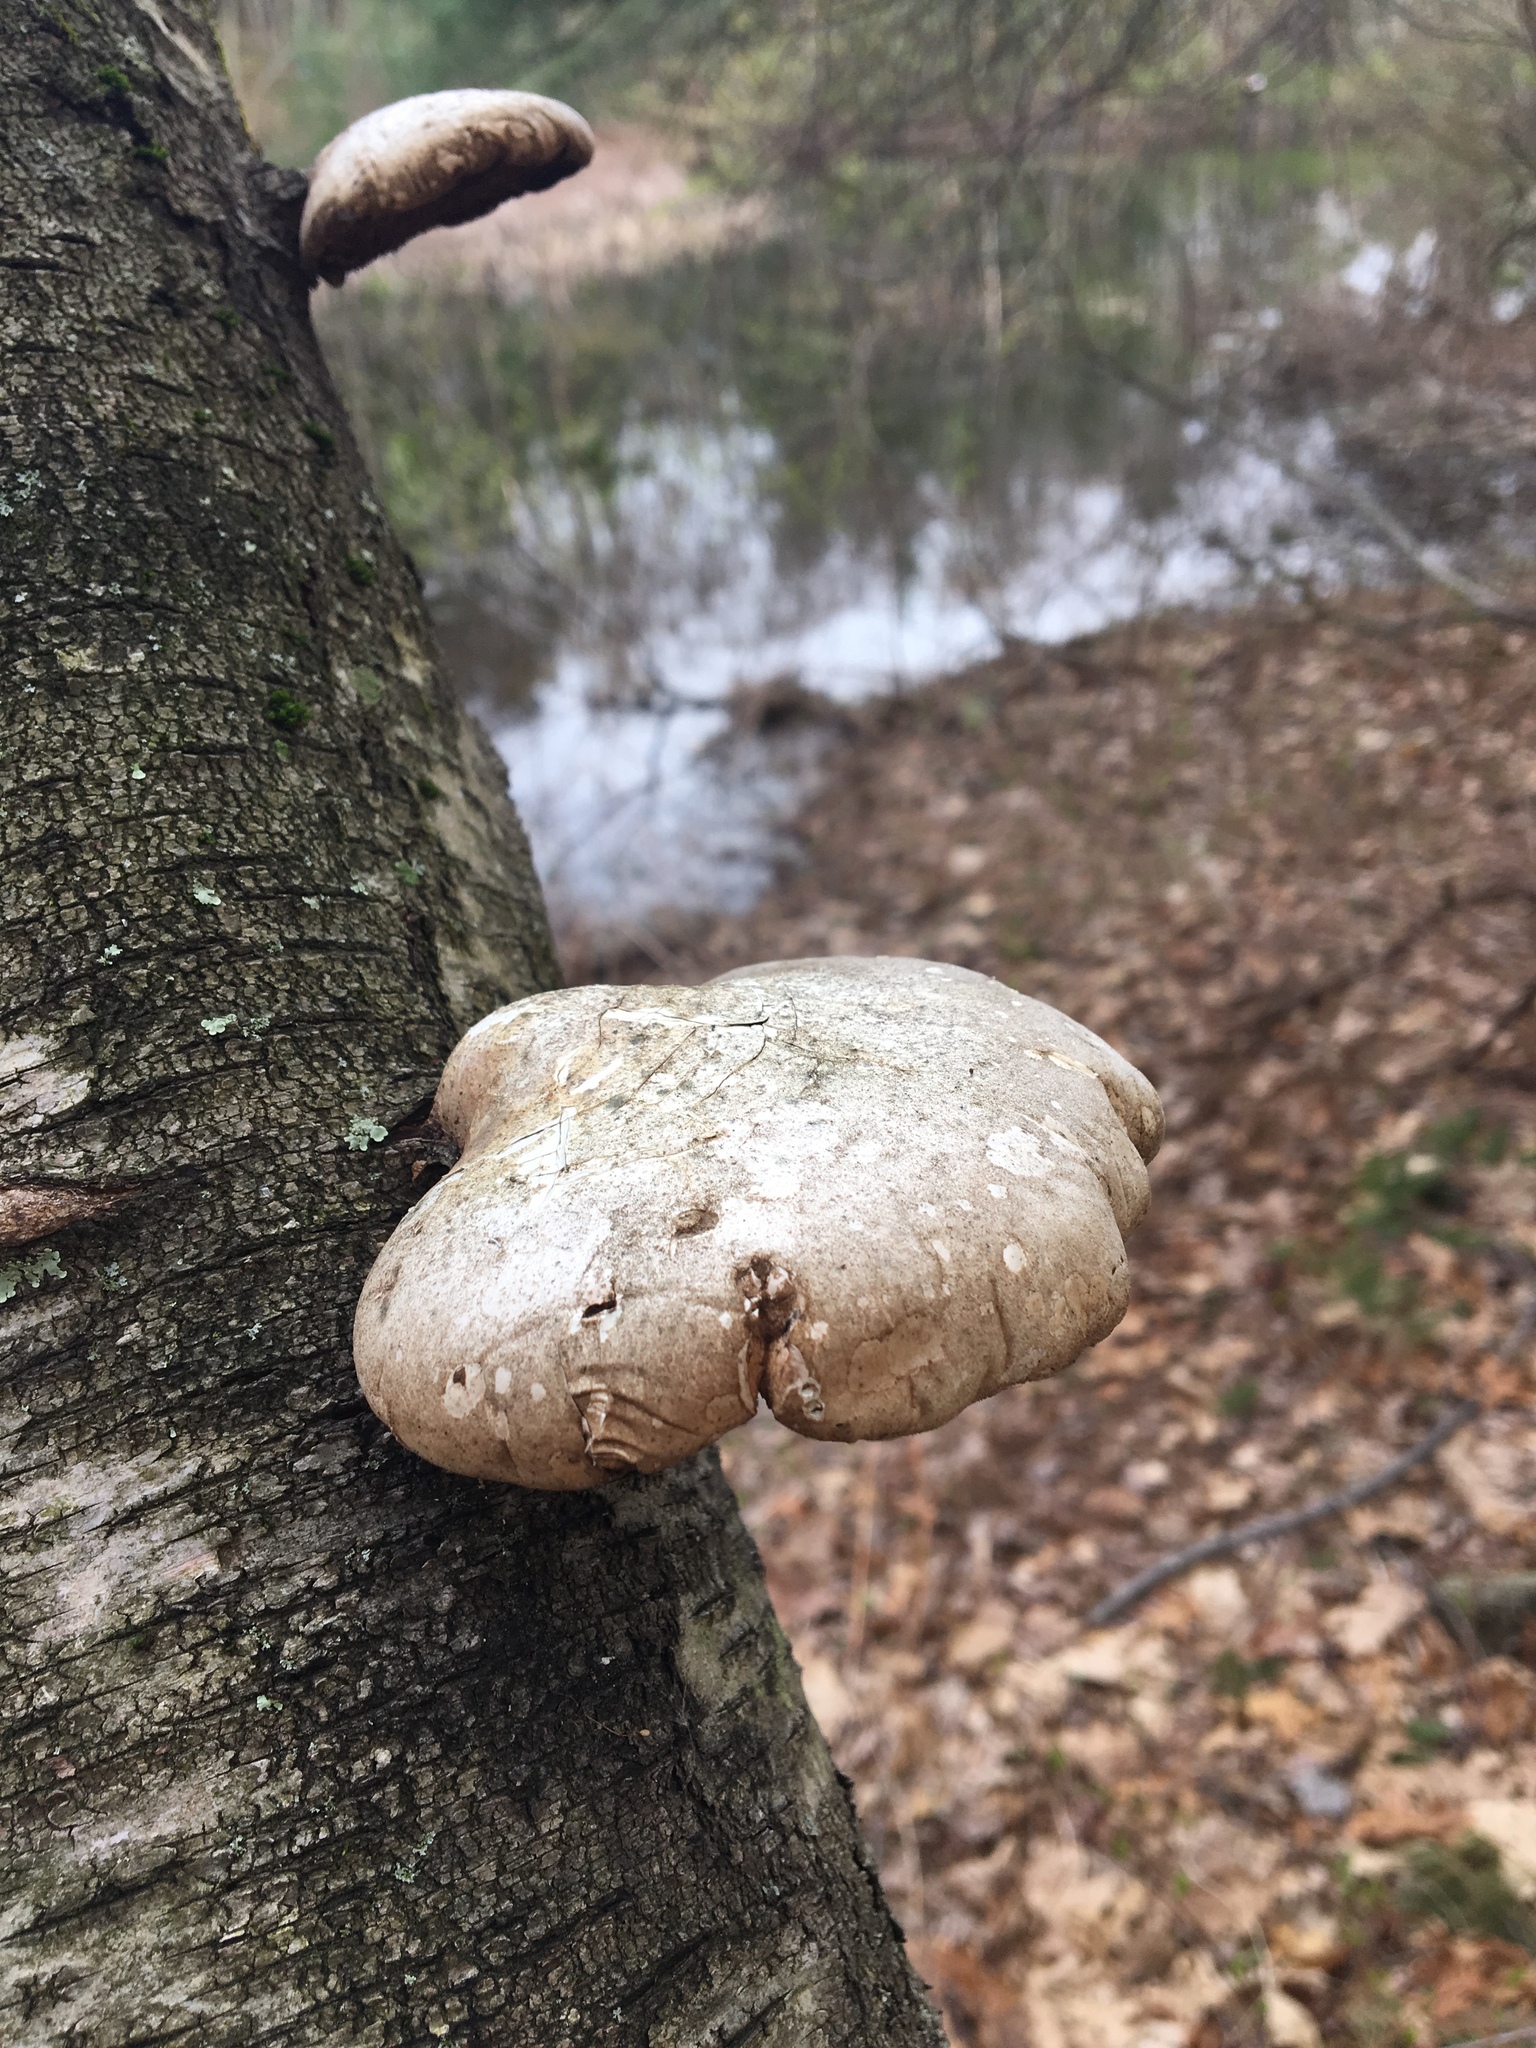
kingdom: Fungi
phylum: Basidiomycota
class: Agaricomycetes
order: Polyporales
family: Fomitopsidaceae
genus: Fomitopsis
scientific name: Fomitopsis betulina
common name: Birch polypore
